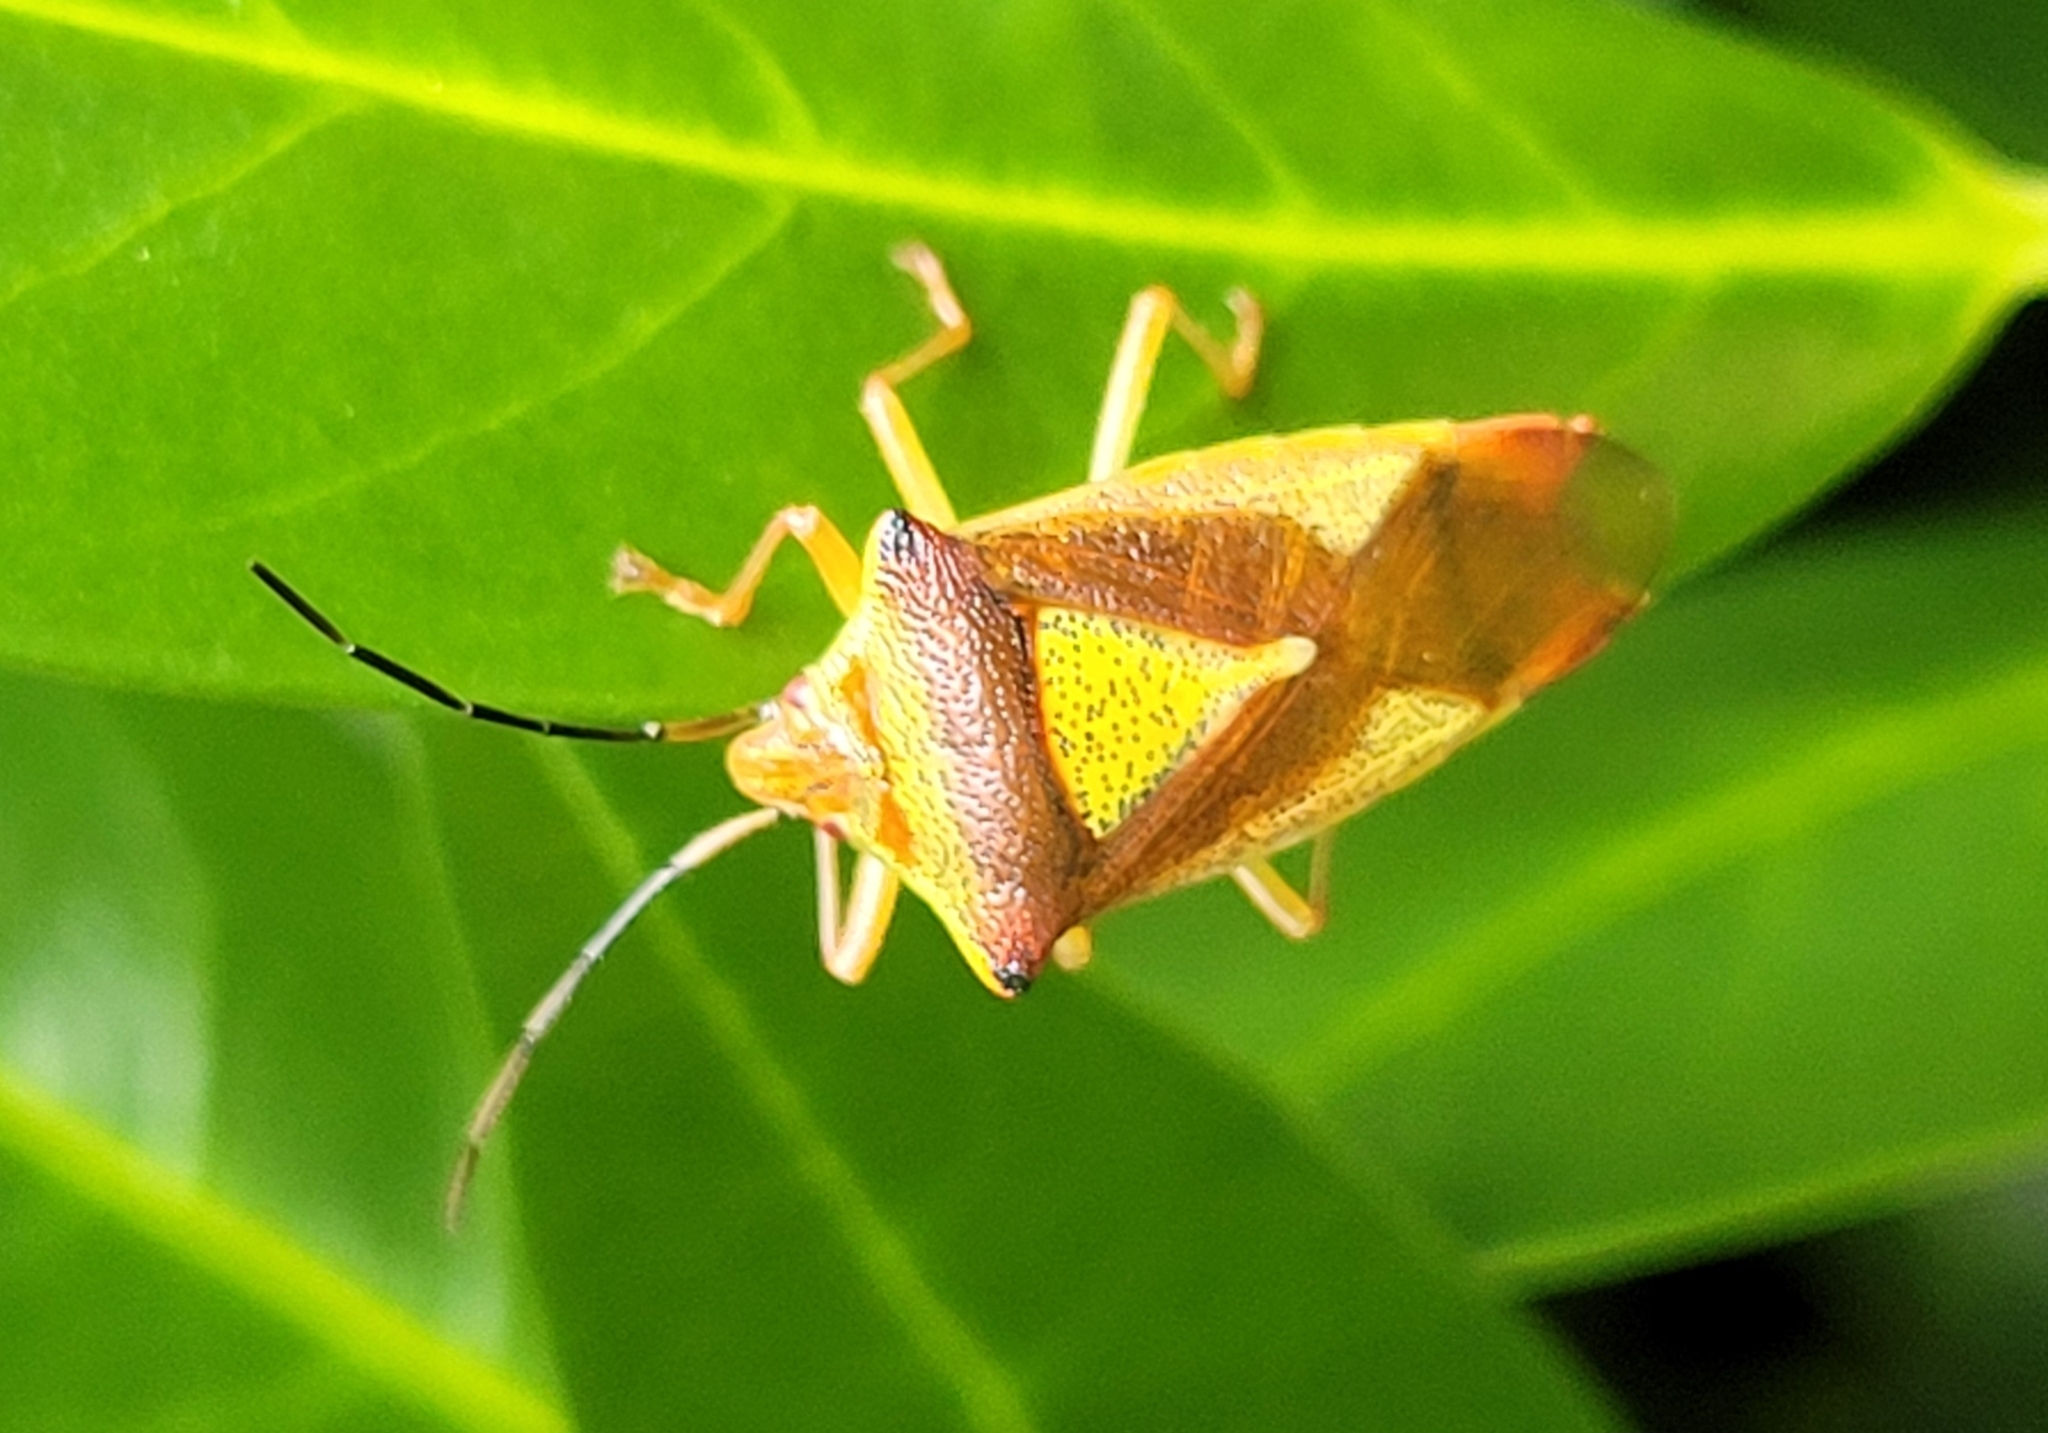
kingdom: Animalia
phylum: Arthropoda
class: Insecta
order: Hemiptera
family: Acanthosomatidae
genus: Acanthosoma
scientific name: Acanthosoma haemorrhoidale
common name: Hawthorn shieldbug
